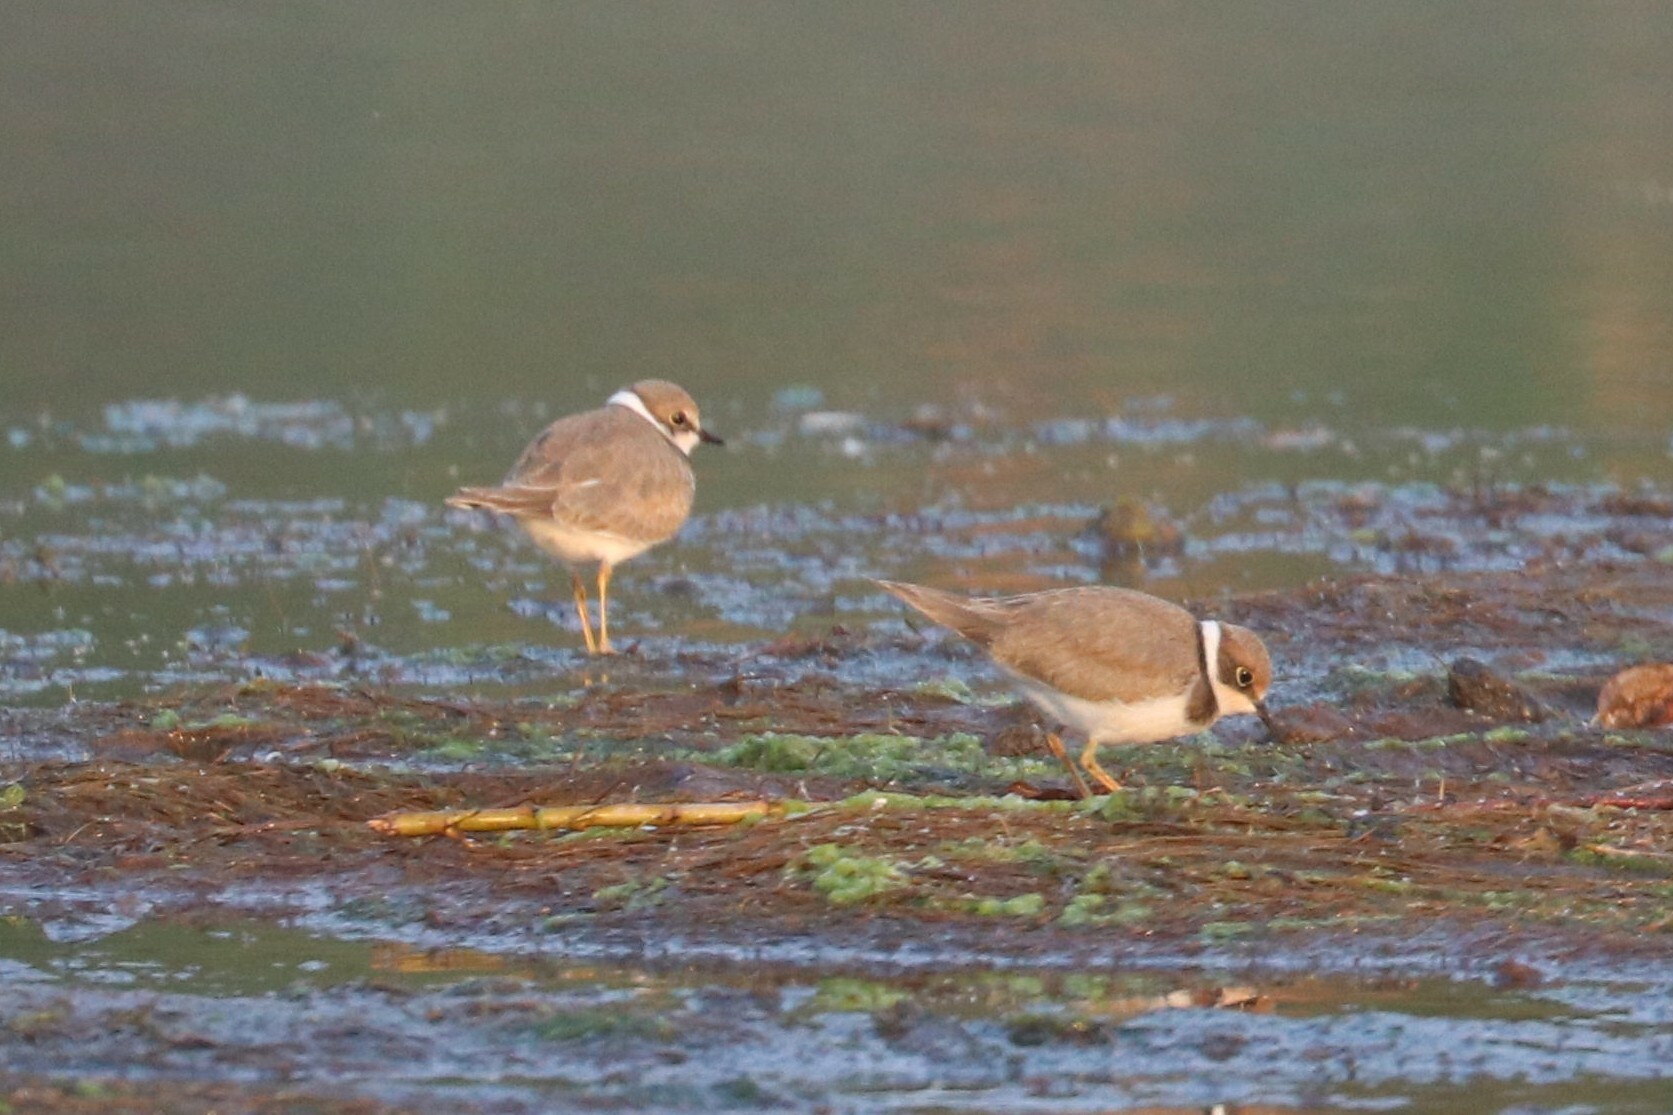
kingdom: Animalia
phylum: Chordata
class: Aves
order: Charadriiformes
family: Charadriidae
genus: Charadrius
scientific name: Charadrius dubius
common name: Little ringed plover
